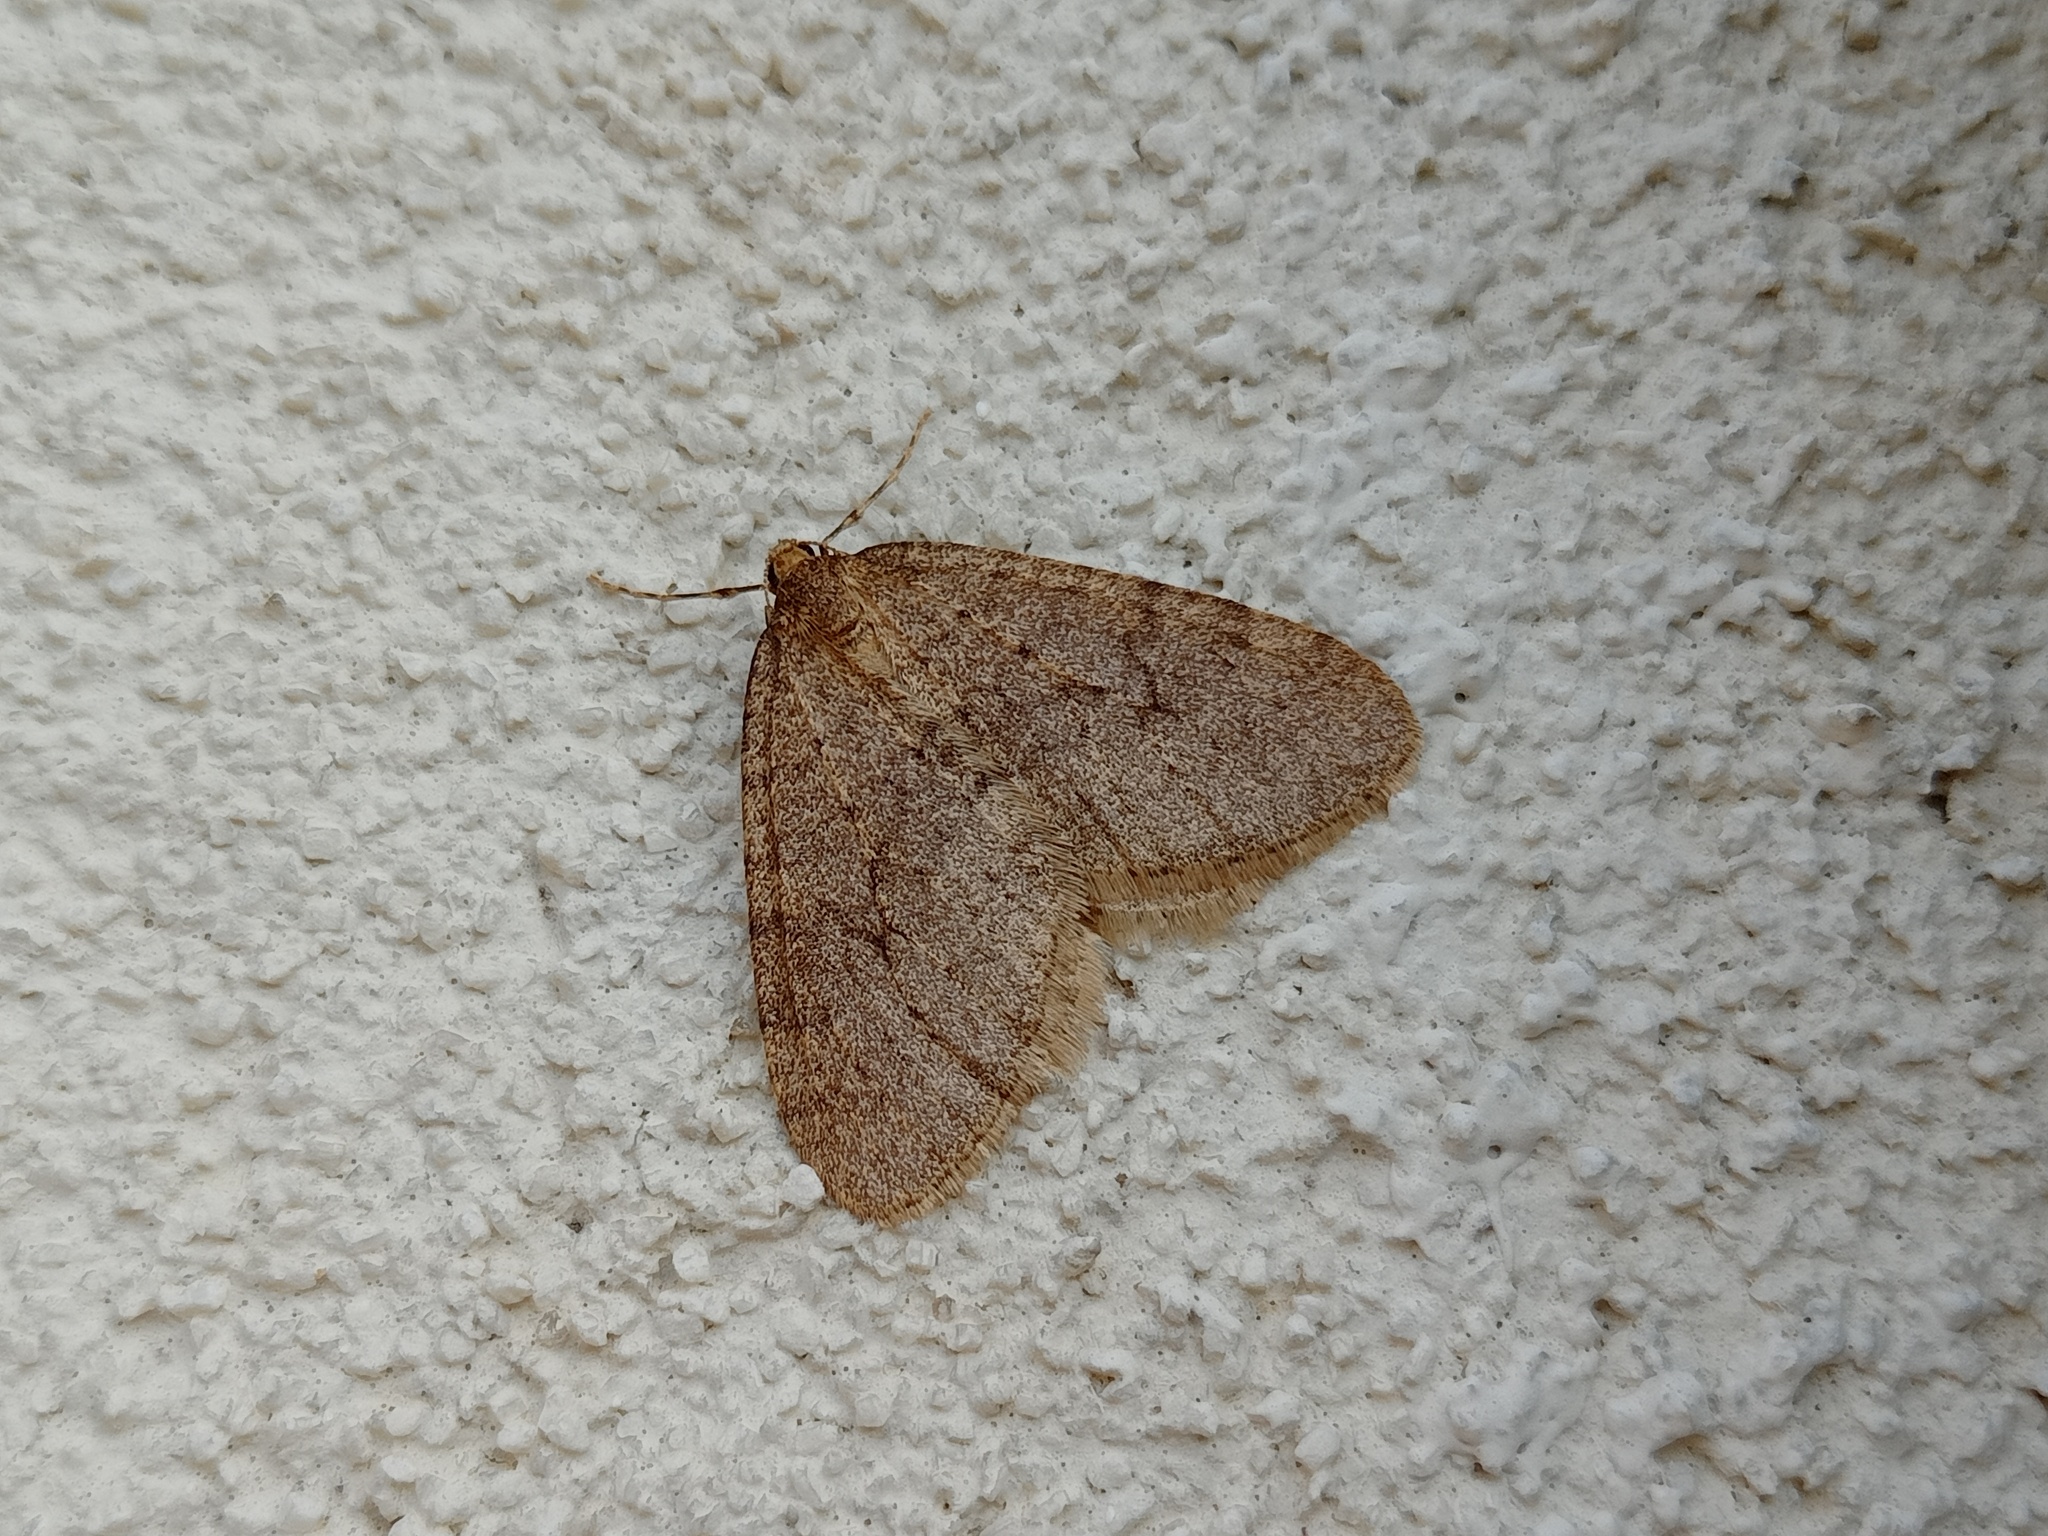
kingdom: Animalia
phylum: Arthropoda
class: Insecta
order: Lepidoptera
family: Geometridae
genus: Operophtera
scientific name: Operophtera brumata
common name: Winter moth
